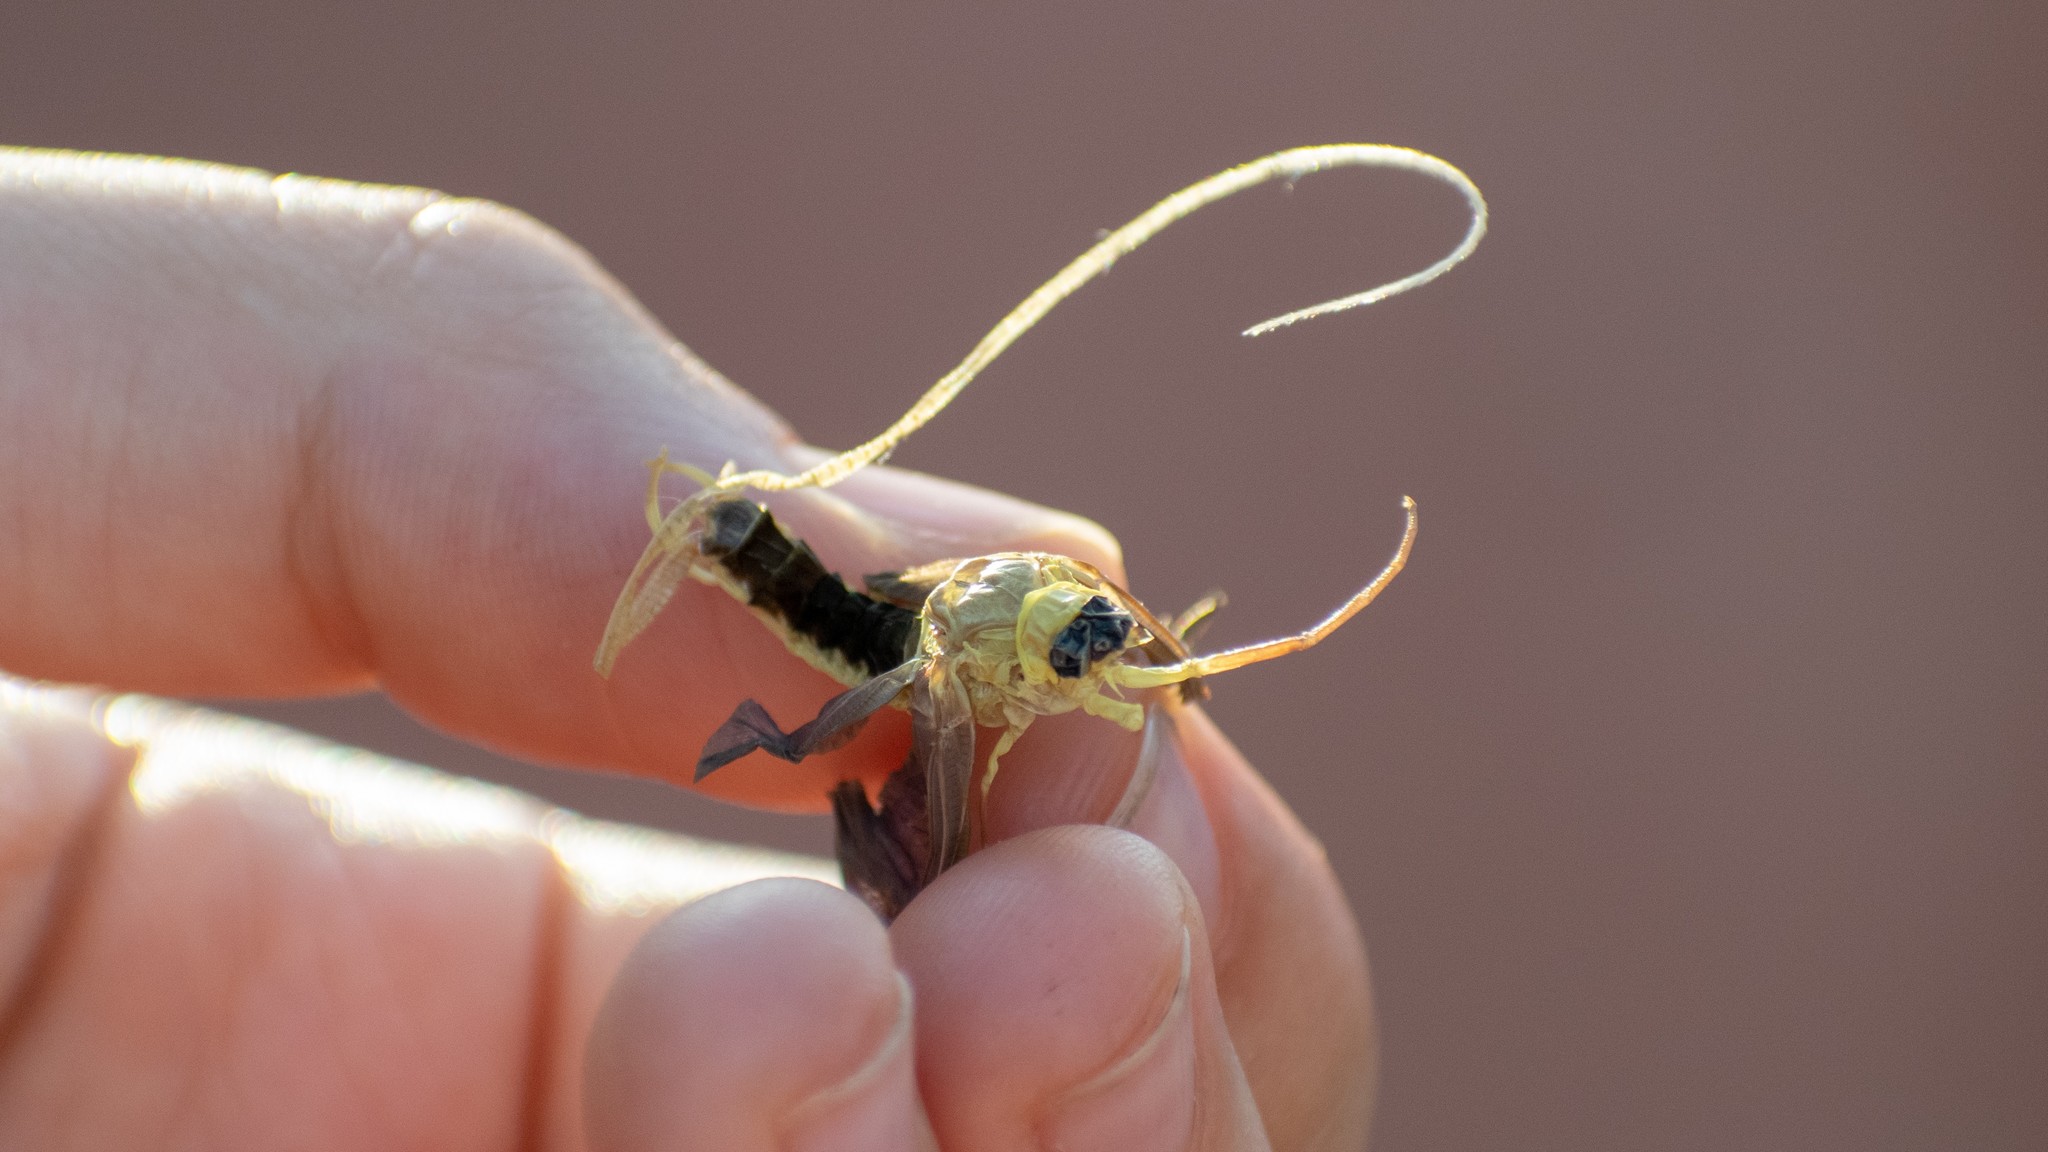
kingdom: Animalia
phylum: Arthropoda
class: Insecta
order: Ephemeroptera
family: Palingeniidae
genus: Palingenia
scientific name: Palingenia longicauda
